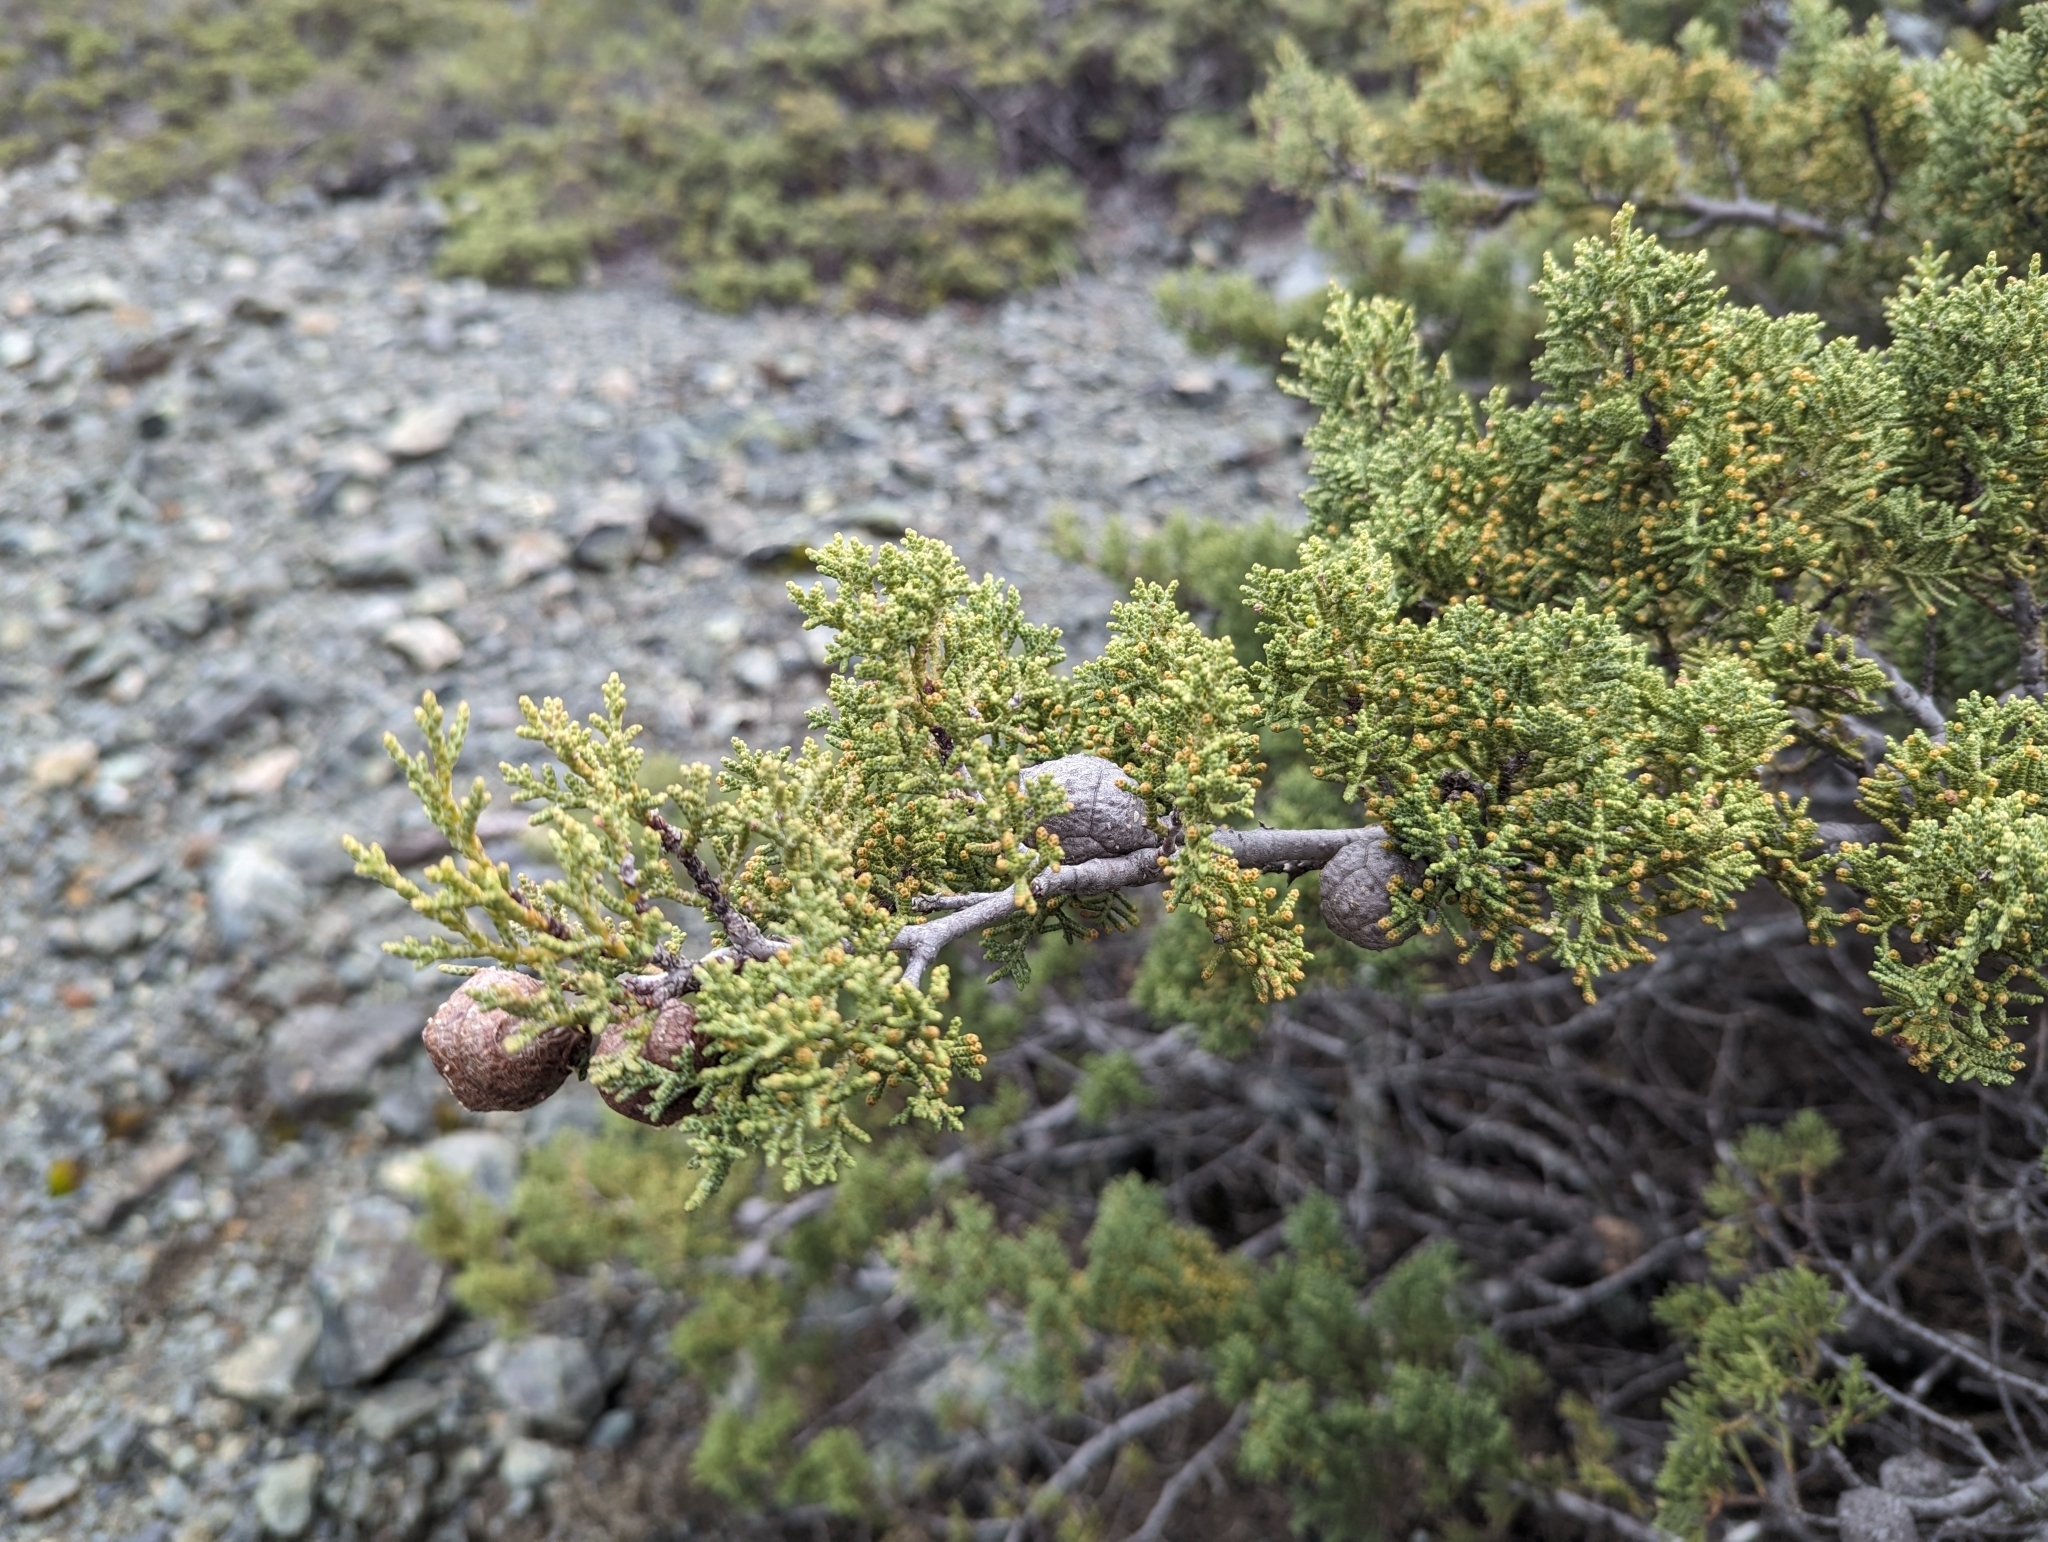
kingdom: Plantae
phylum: Tracheophyta
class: Pinopsida
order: Pinales
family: Cupressaceae
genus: Cupressus
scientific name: Cupressus sargentii
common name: Sargent cypress
